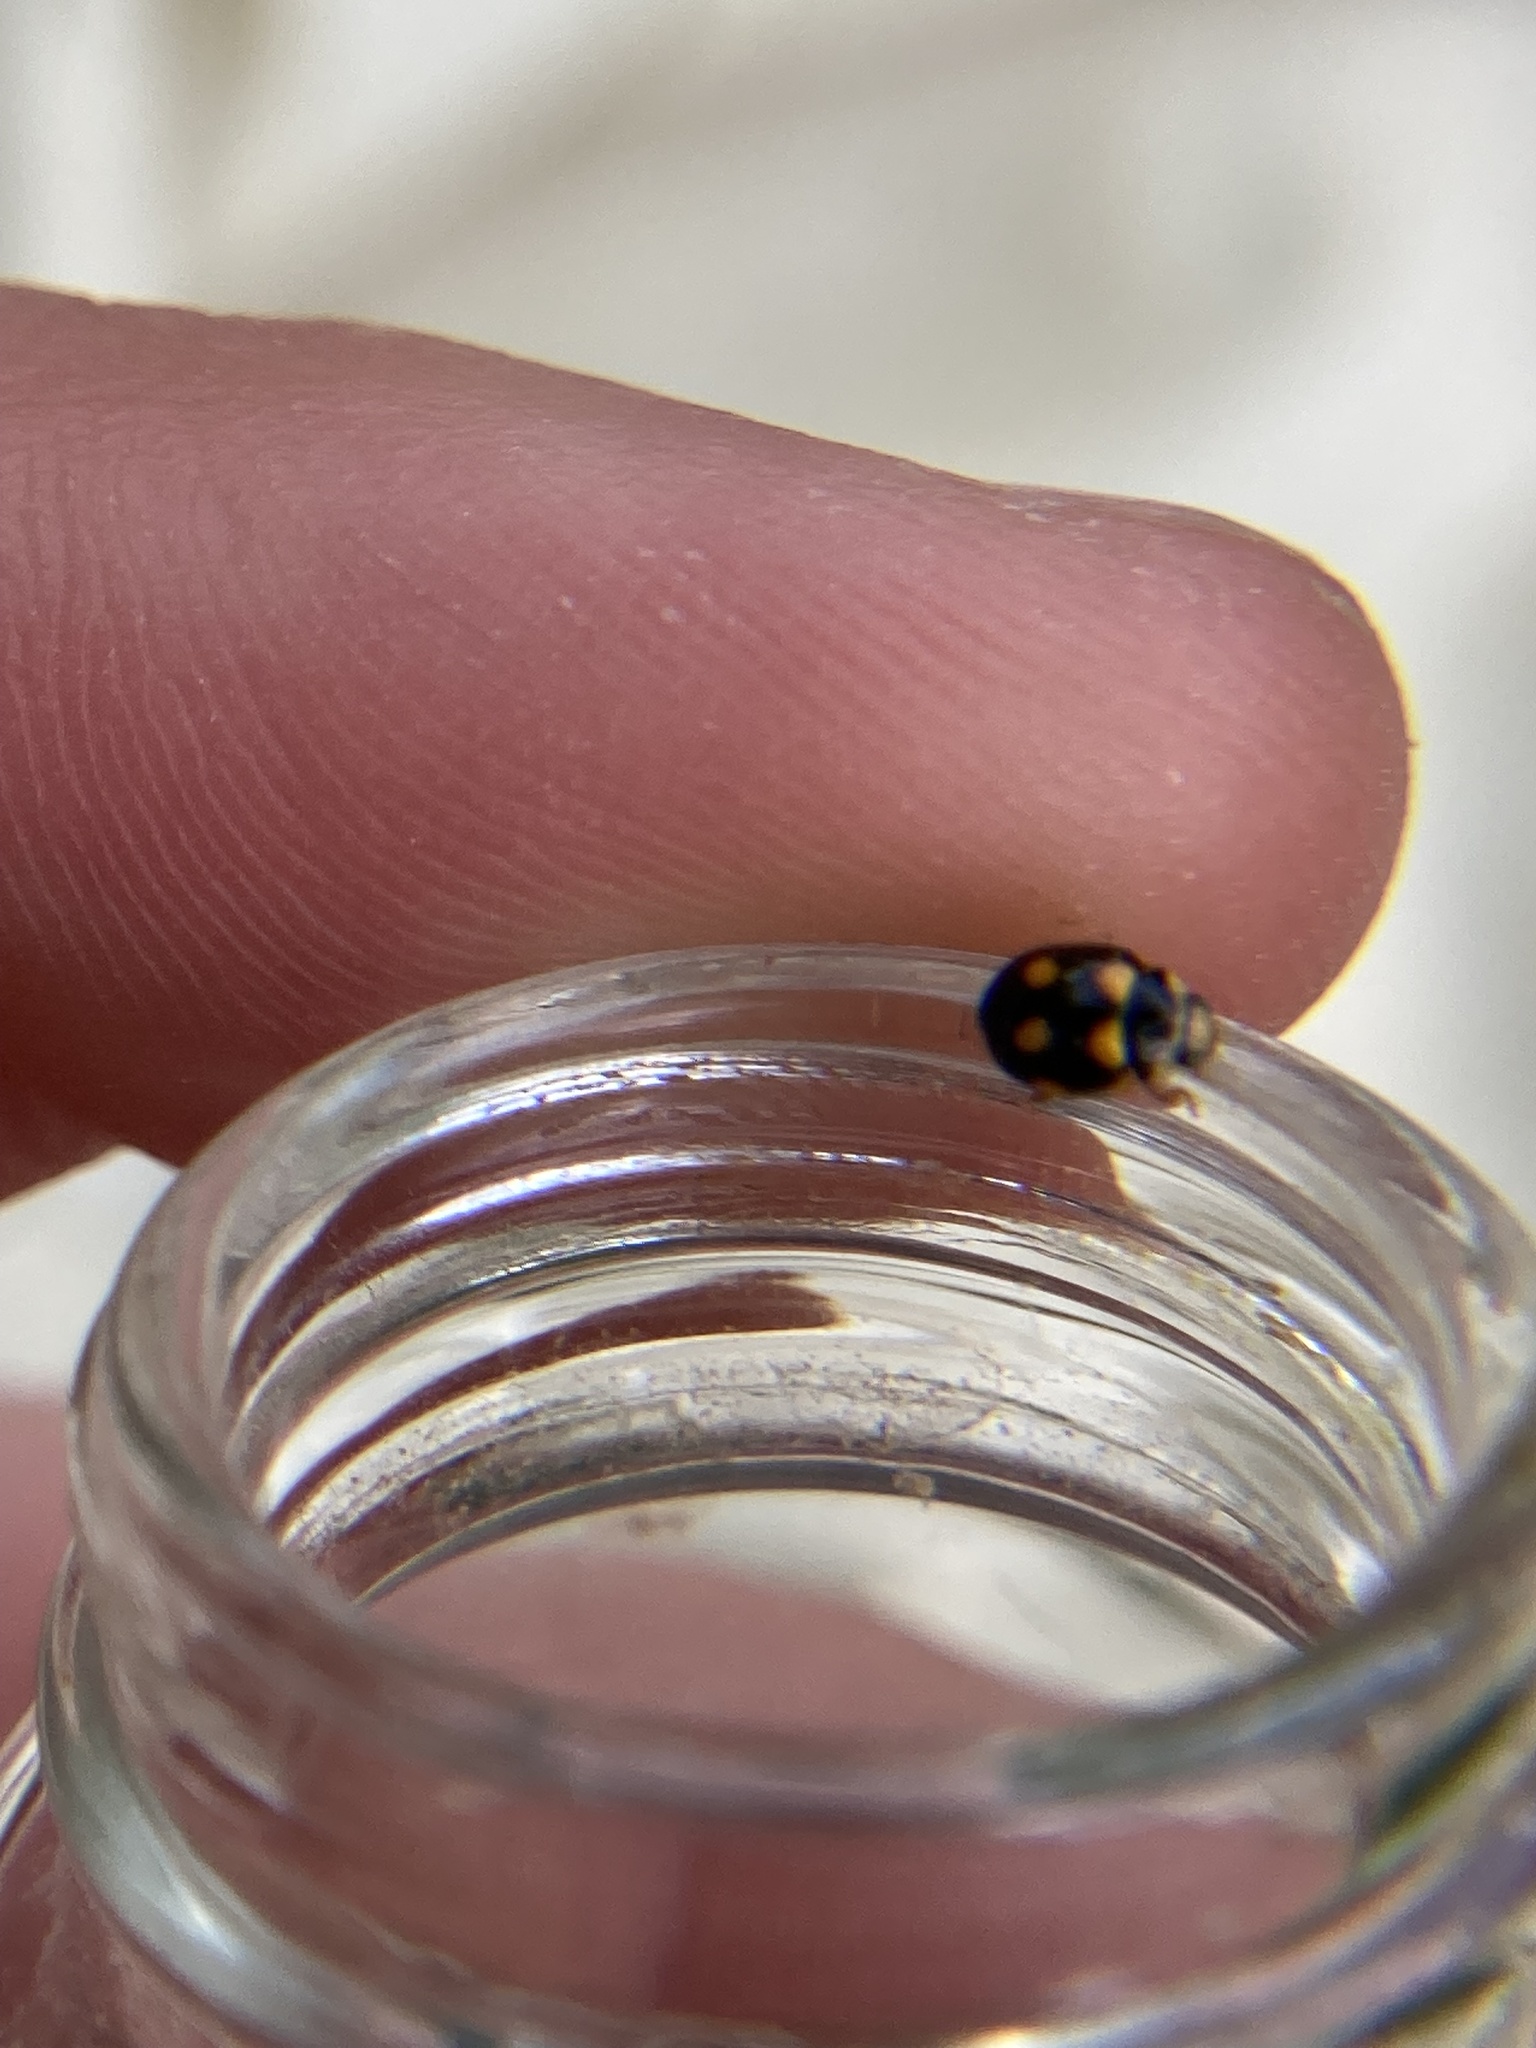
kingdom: Animalia
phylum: Arthropoda
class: Insecta
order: Coleoptera
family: Coccinellidae
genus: Brachiacantha
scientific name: Brachiacantha ursina
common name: Ursine spurleg lady beetle
